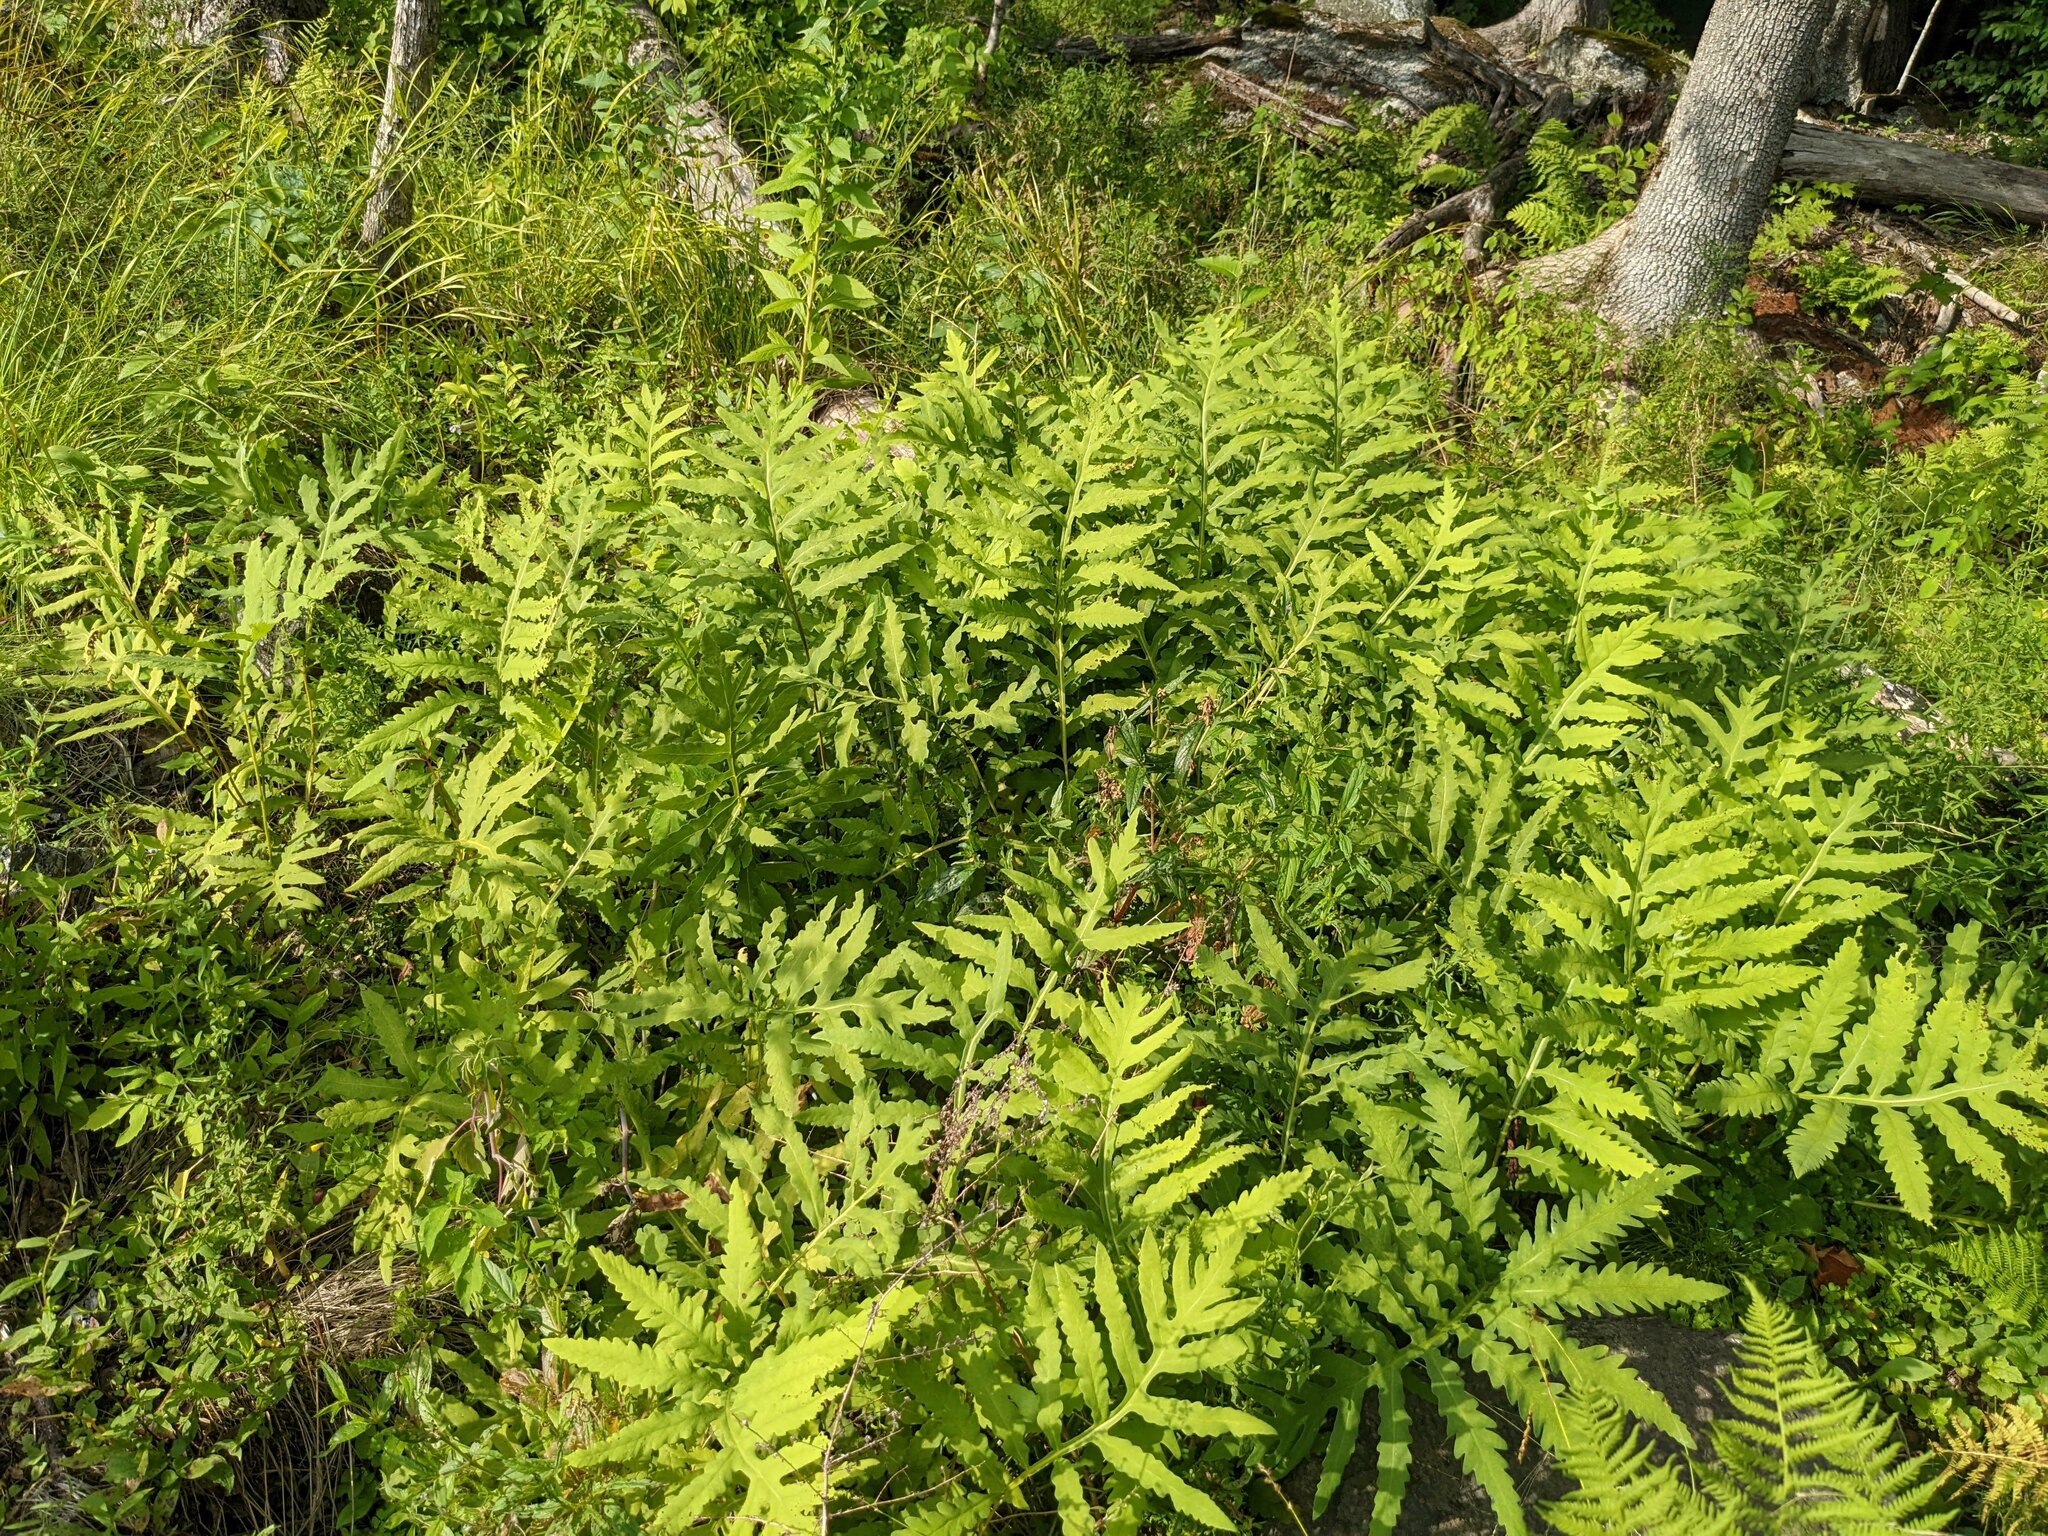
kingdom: Plantae
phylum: Tracheophyta
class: Polypodiopsida
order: Polypodiales
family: Onocleaceae
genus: Onoclea
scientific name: Onoclea sensibilis
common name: Sensitive fern
